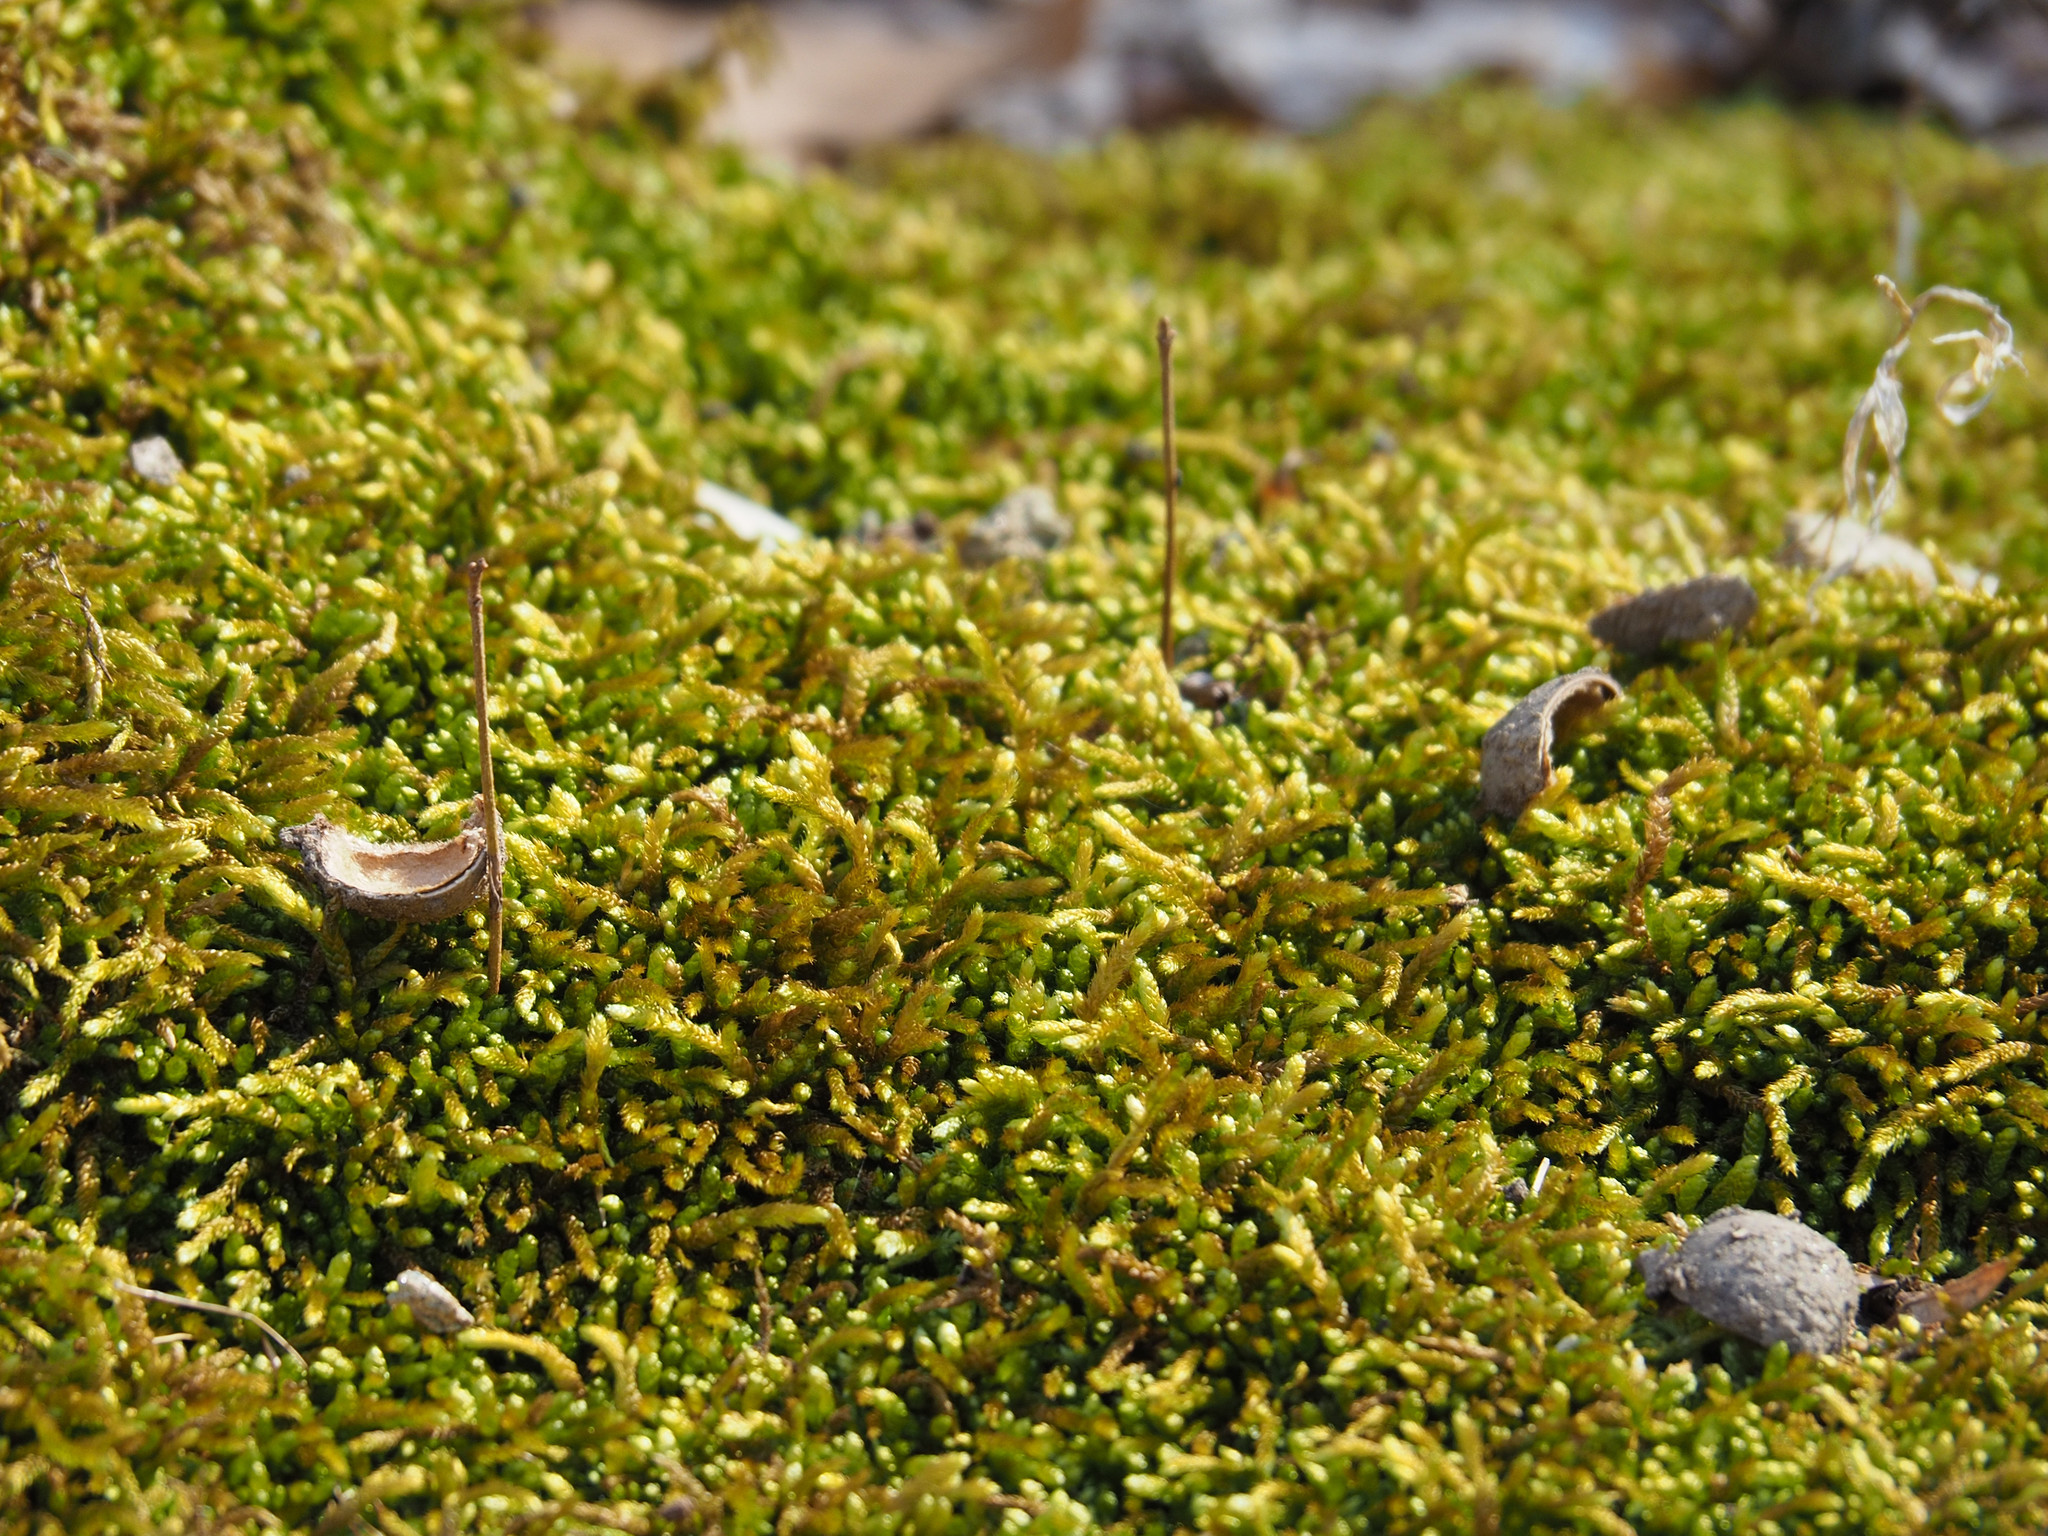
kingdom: Plantae
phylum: Bryophyta
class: Bryopsida
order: Hypnales
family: Brachytheciaceae
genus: Bryoandersonia
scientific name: Bryoandersonia illecebra
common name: Spoon-leaved moss
